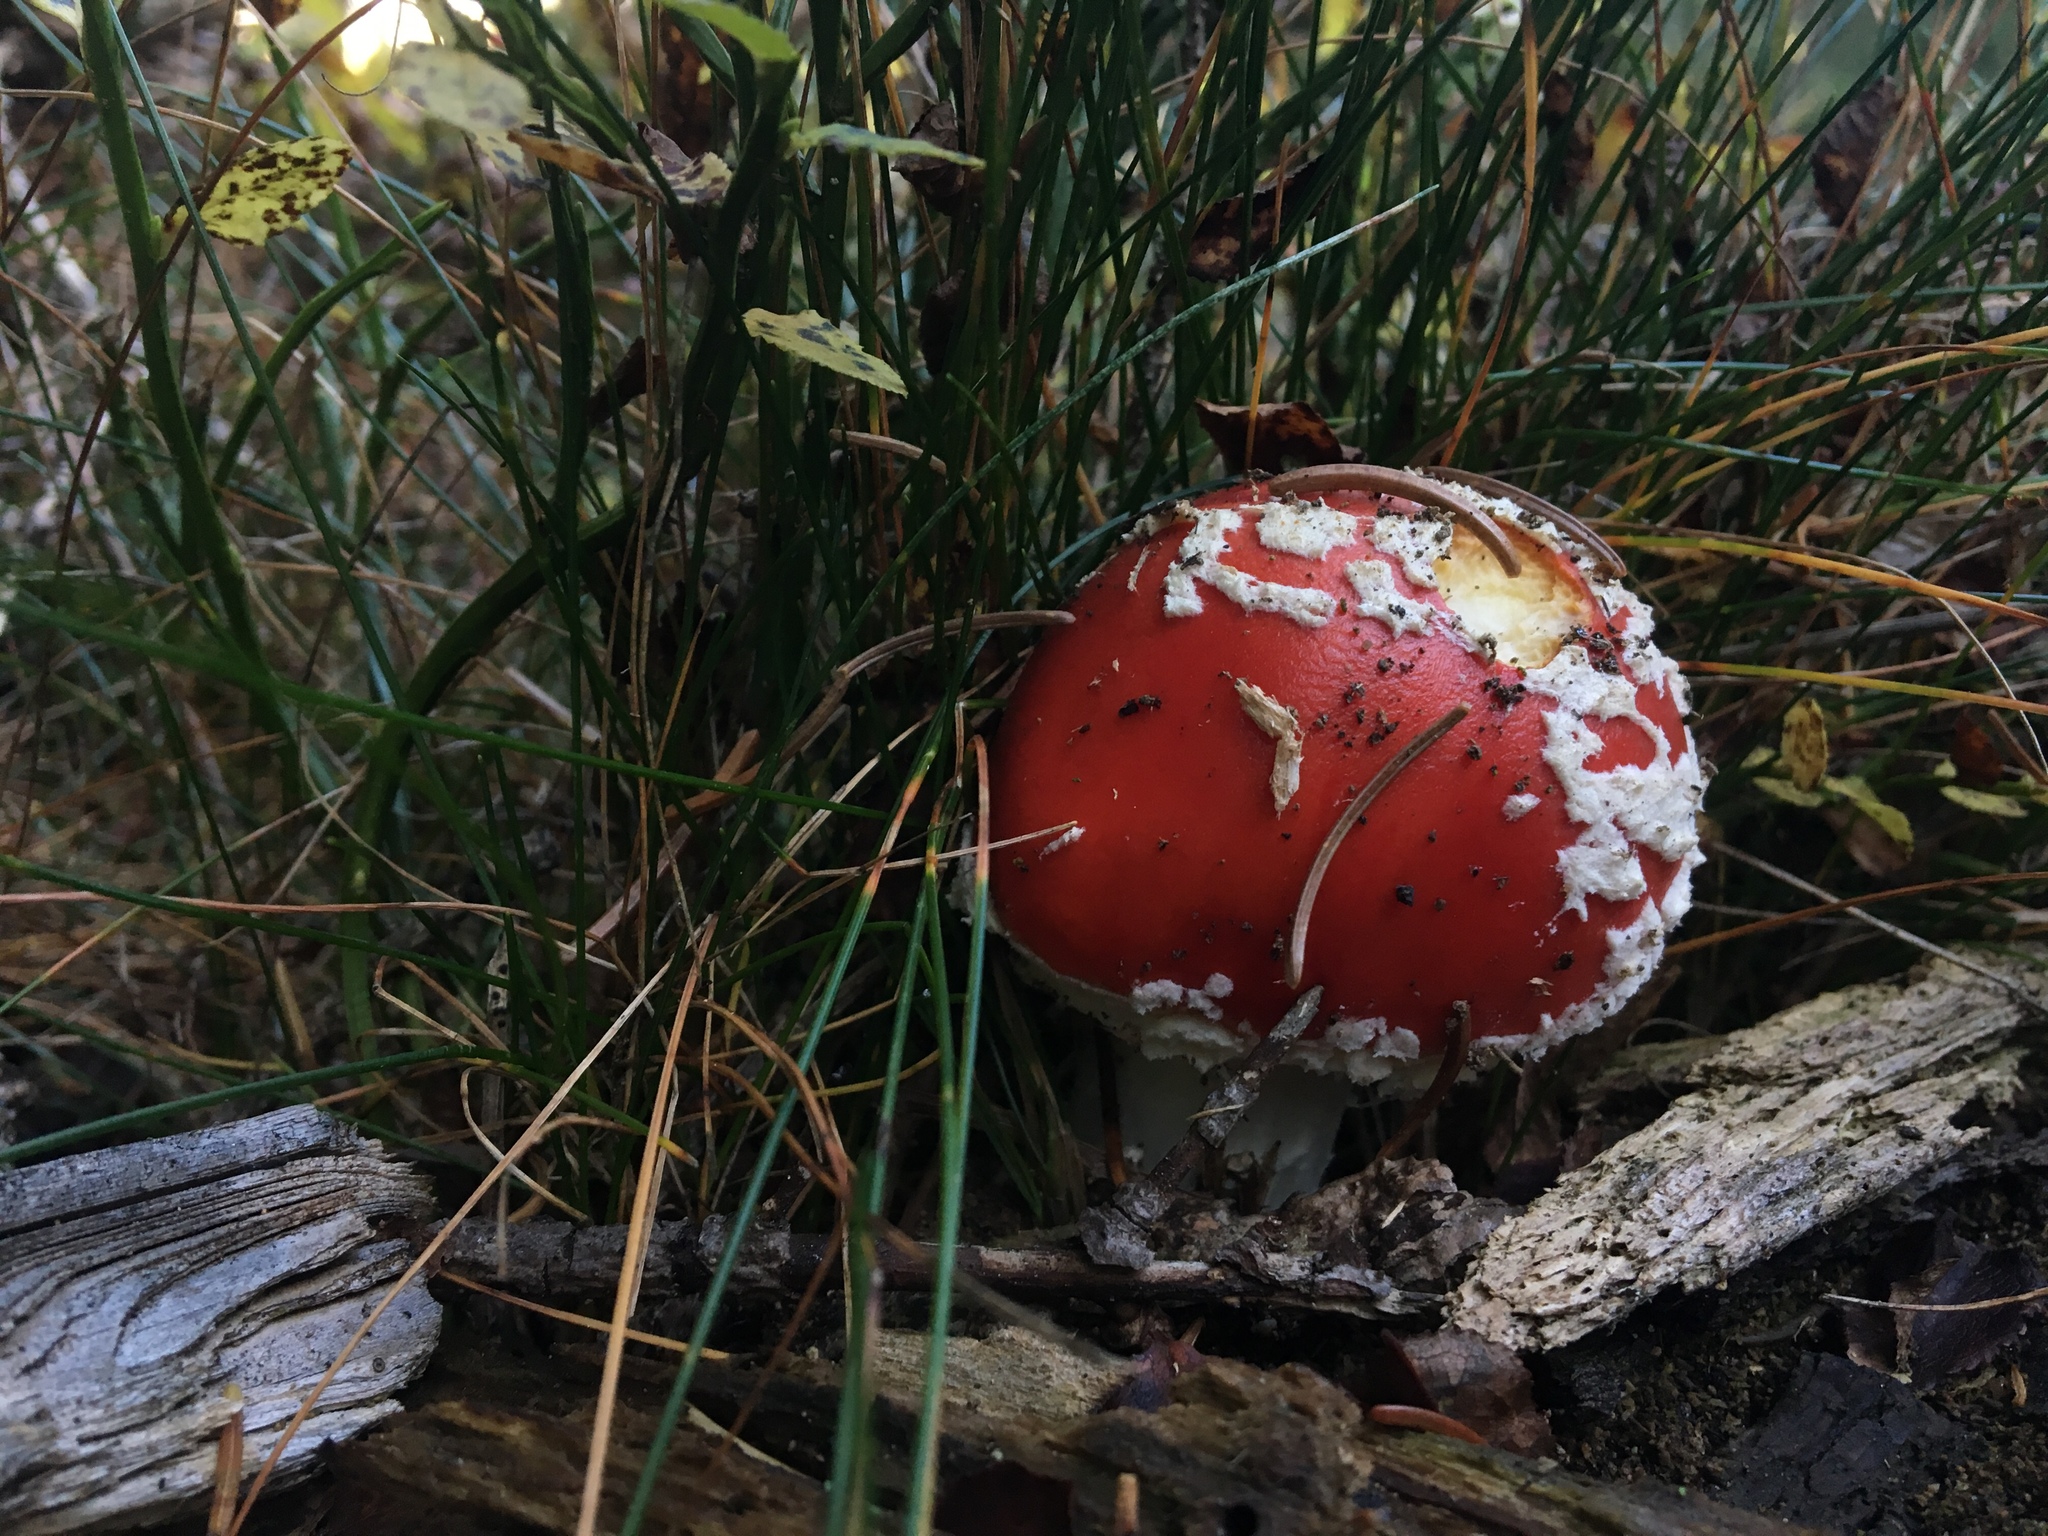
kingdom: Fungi
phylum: Basidiomycota
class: Agaricomycetes
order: Agaricales
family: Amanitaceae
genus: Amanita
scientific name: Amanita muscaria
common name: Fly agaric
